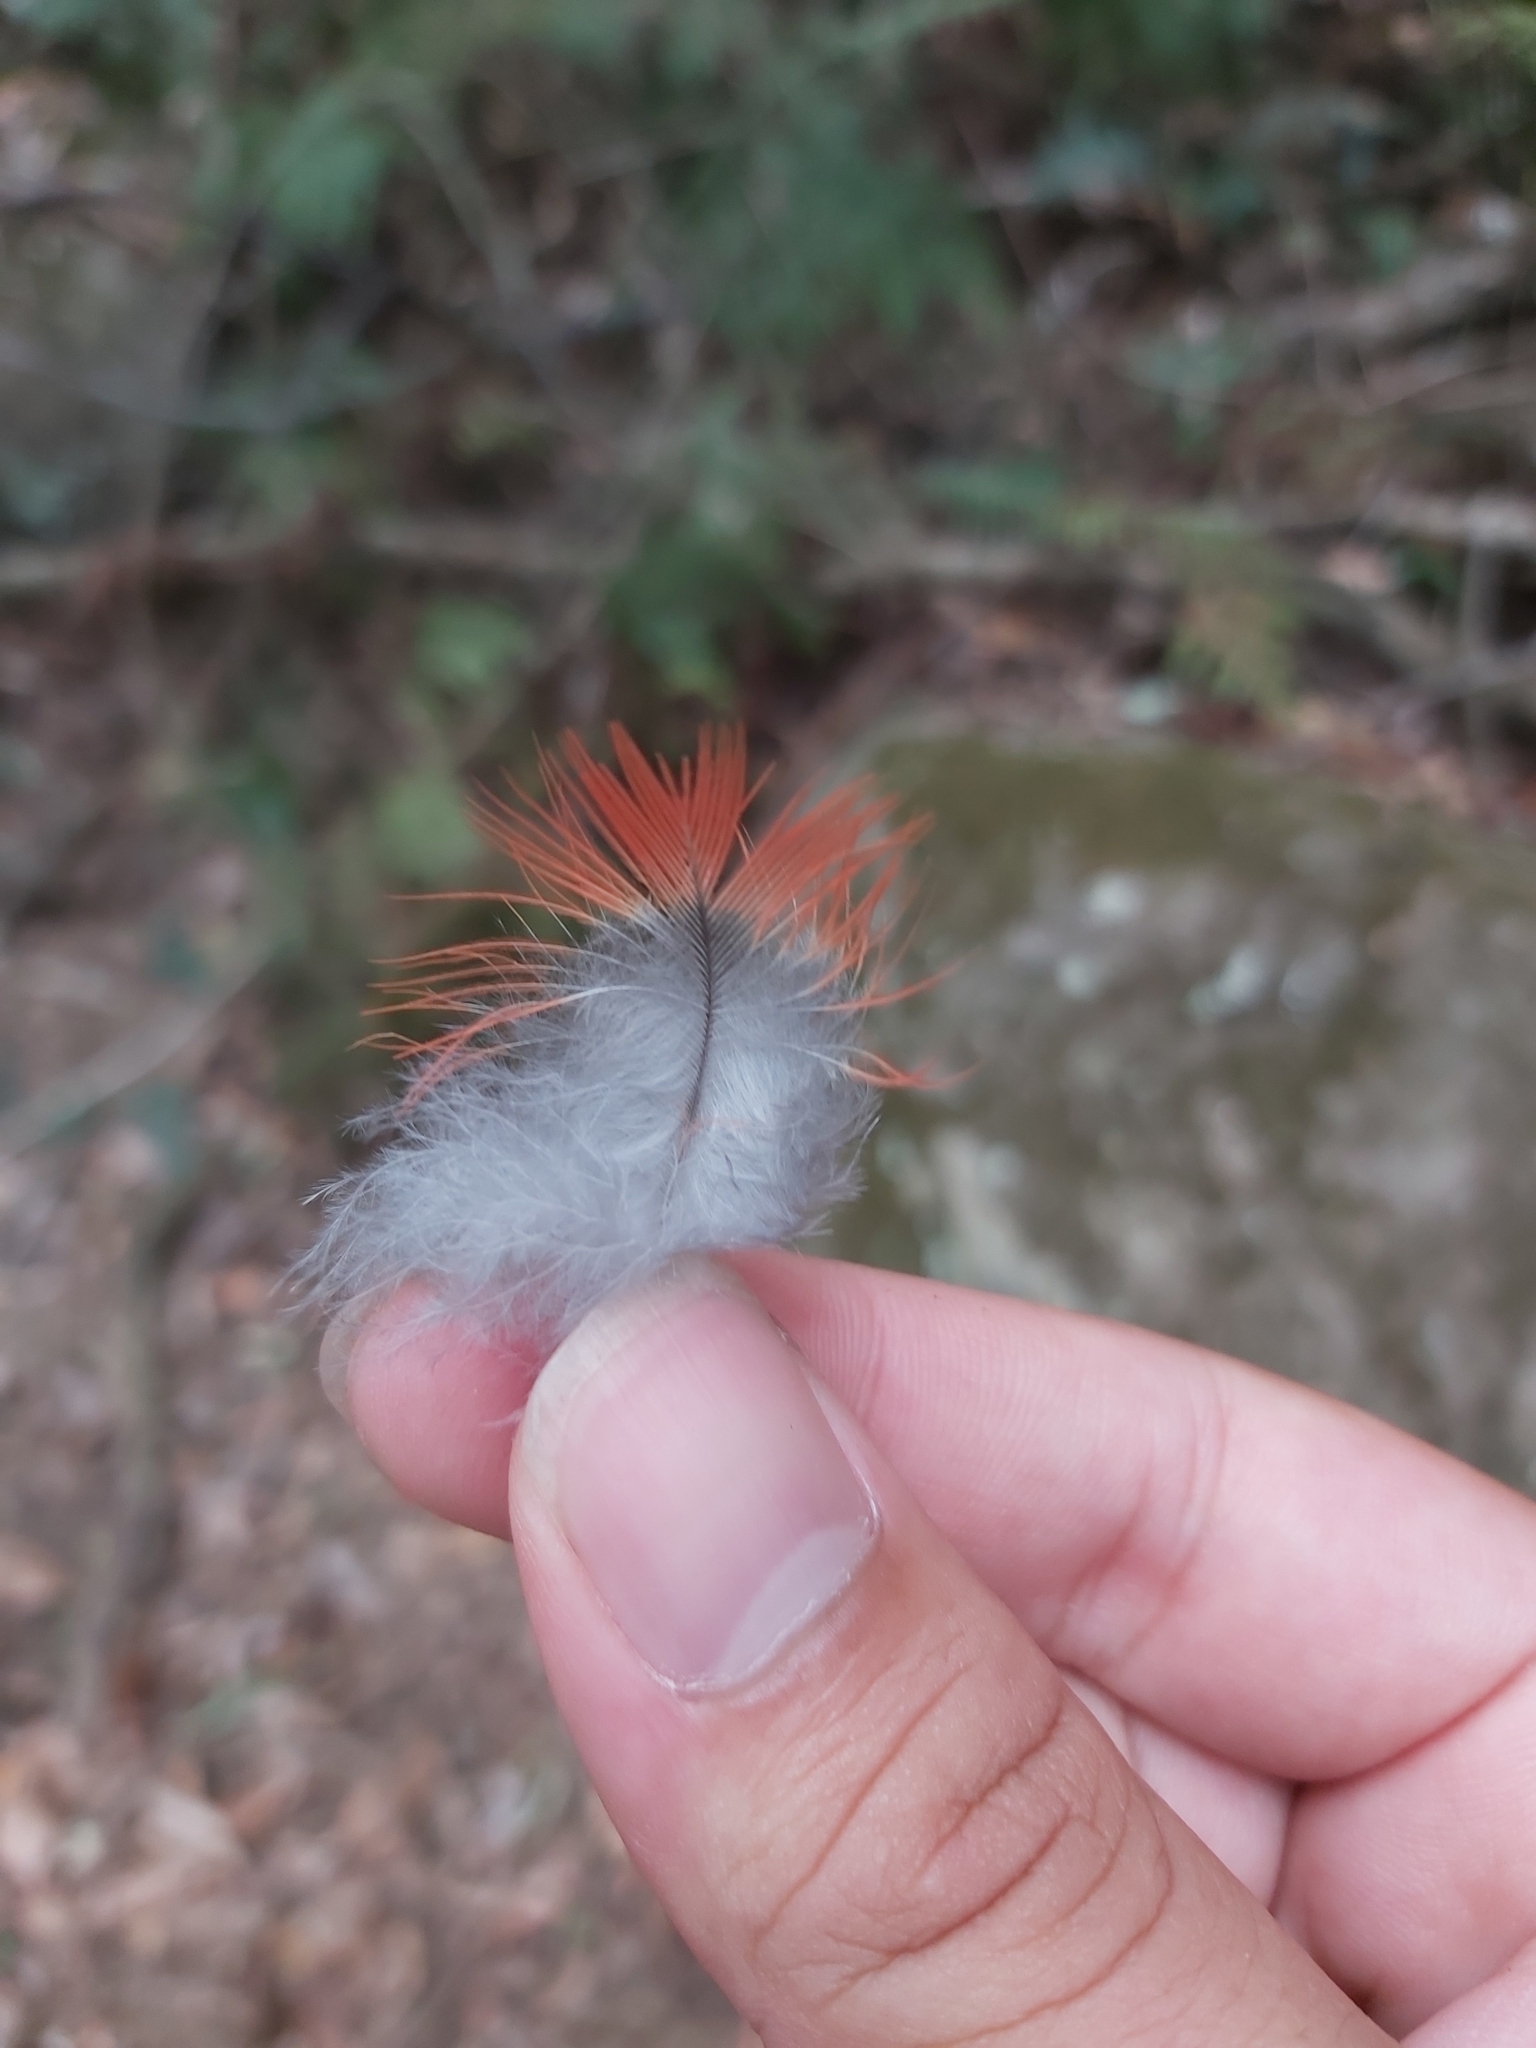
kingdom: Animalia
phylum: Chordata
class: Aves
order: Psittaciformes
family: Psittacidae
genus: Platycercus
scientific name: Platycercus elegans
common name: Crimson rosella
